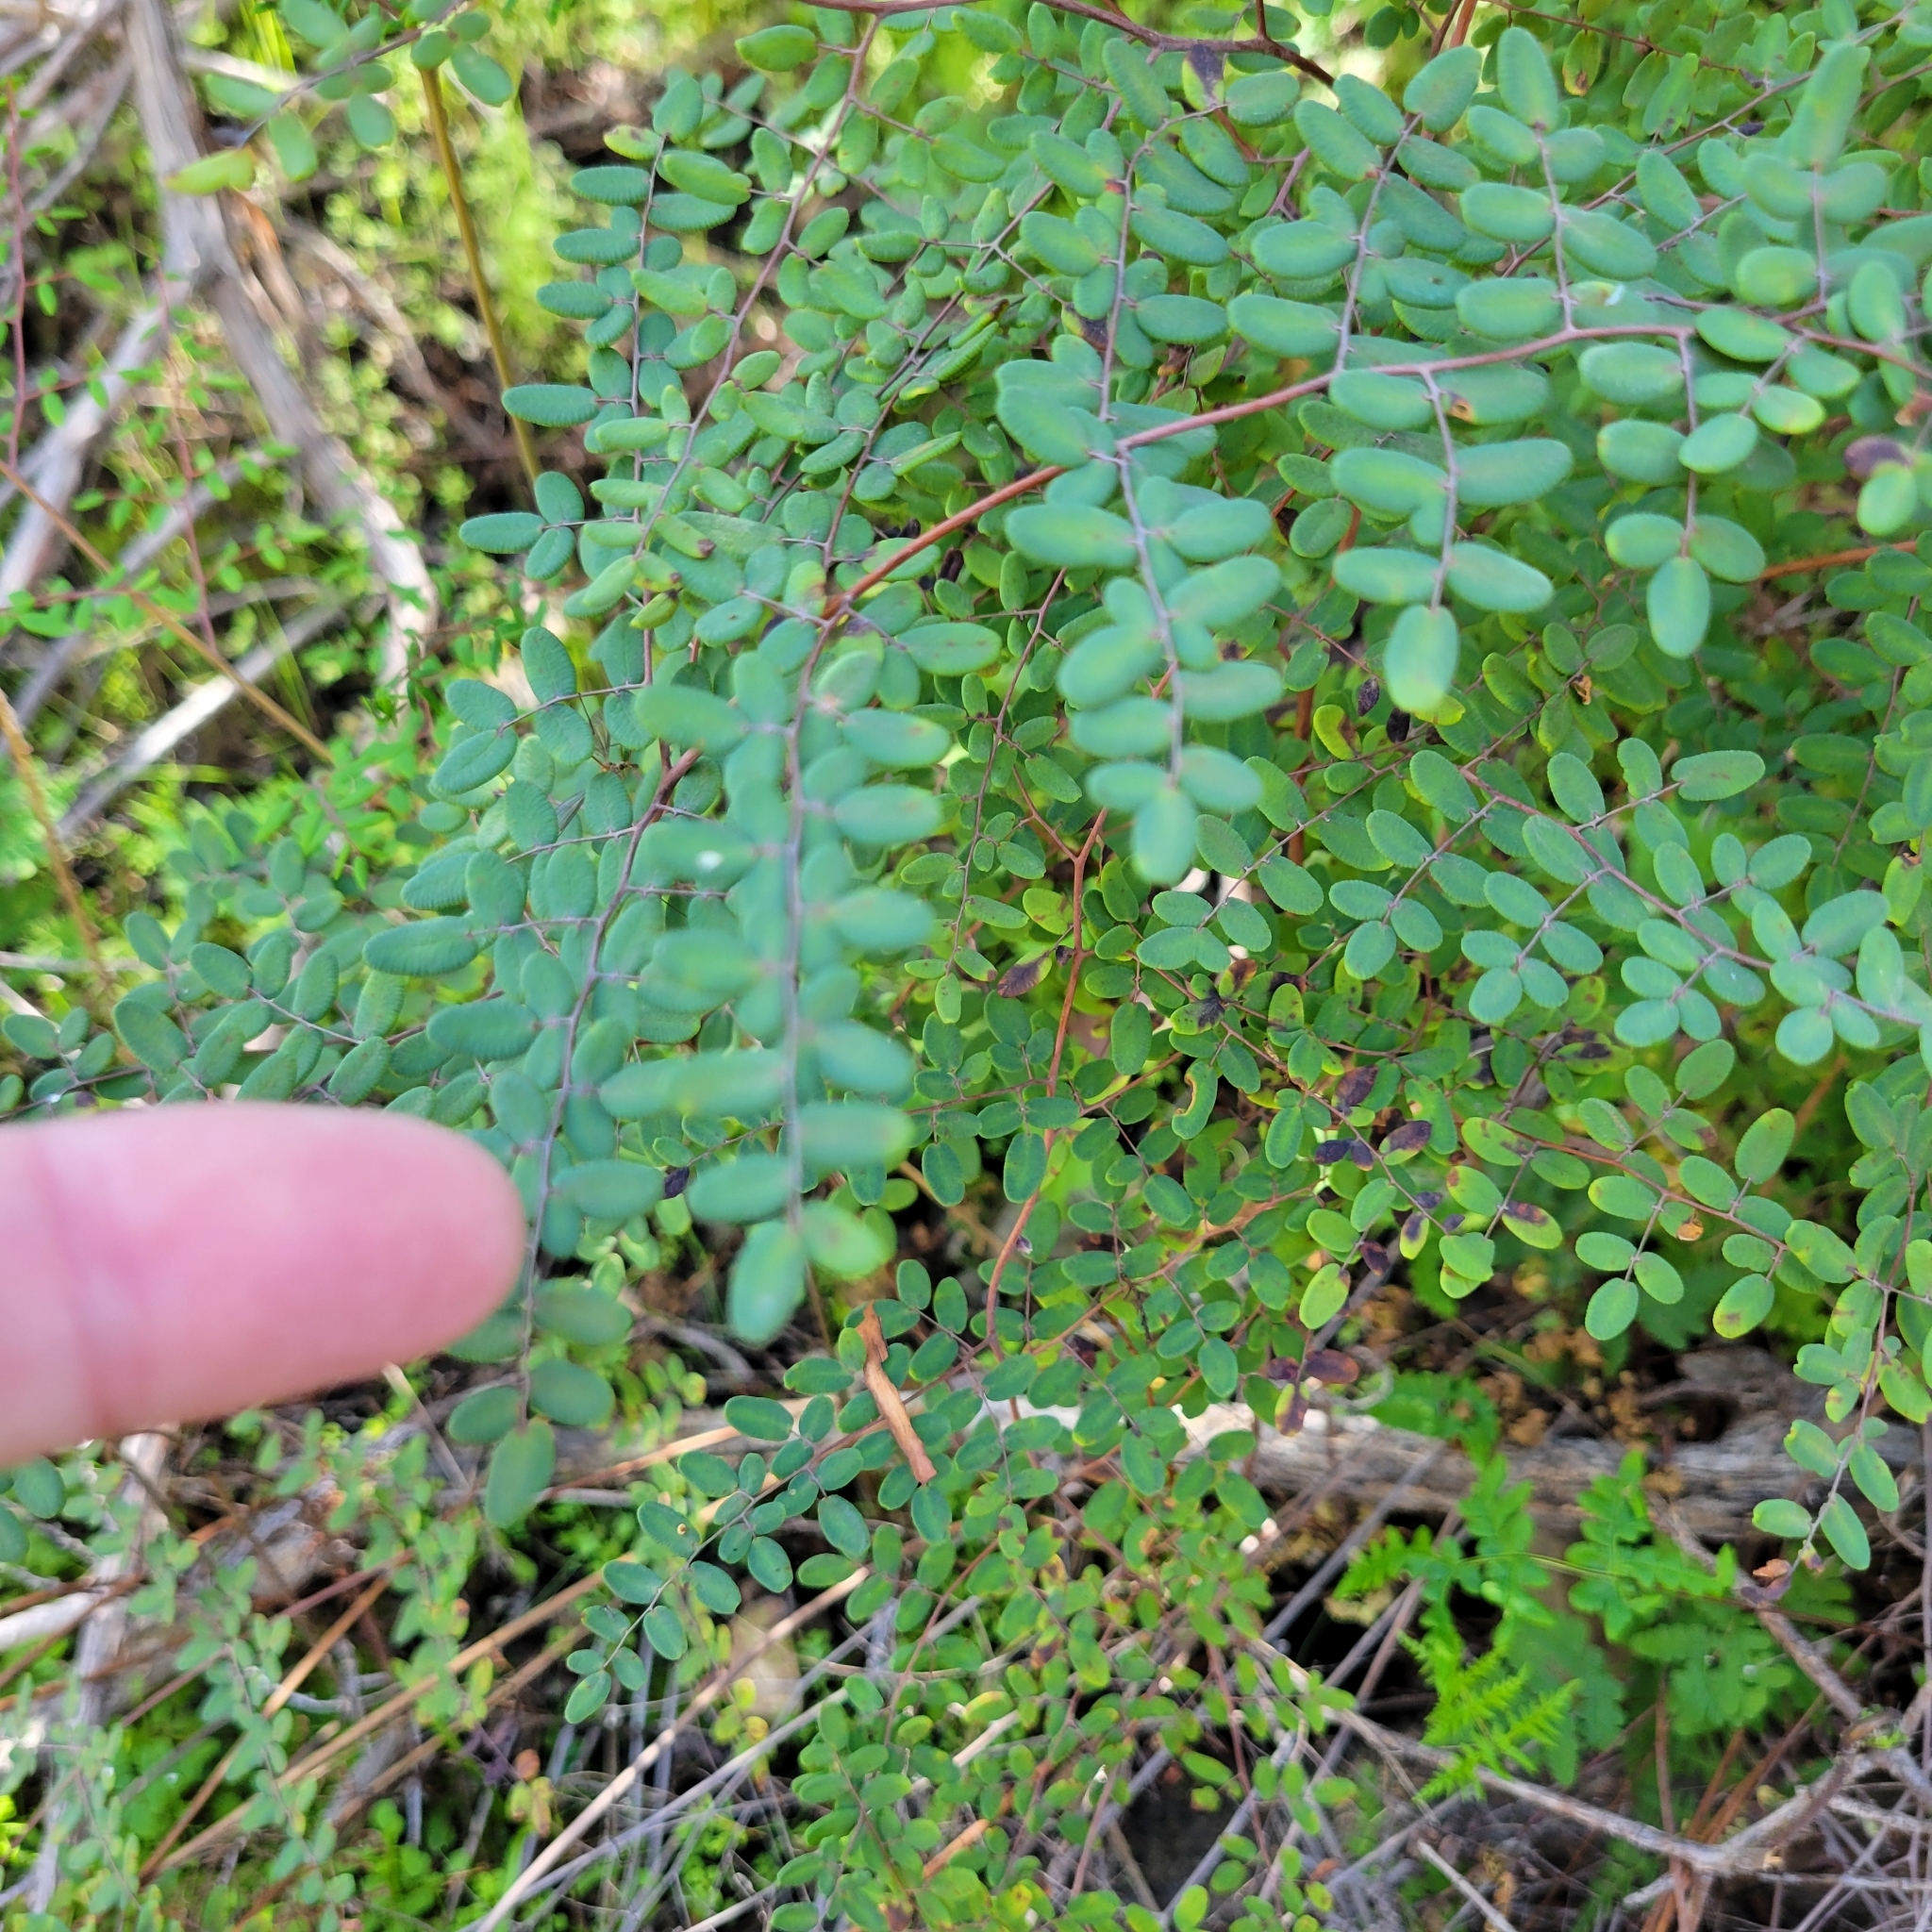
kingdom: Plantae
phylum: Tracheophyta
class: Polypodiopsida
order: Polypodiales
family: Pteridaceae
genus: Pellaea
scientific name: Pellaea andromedifolia
